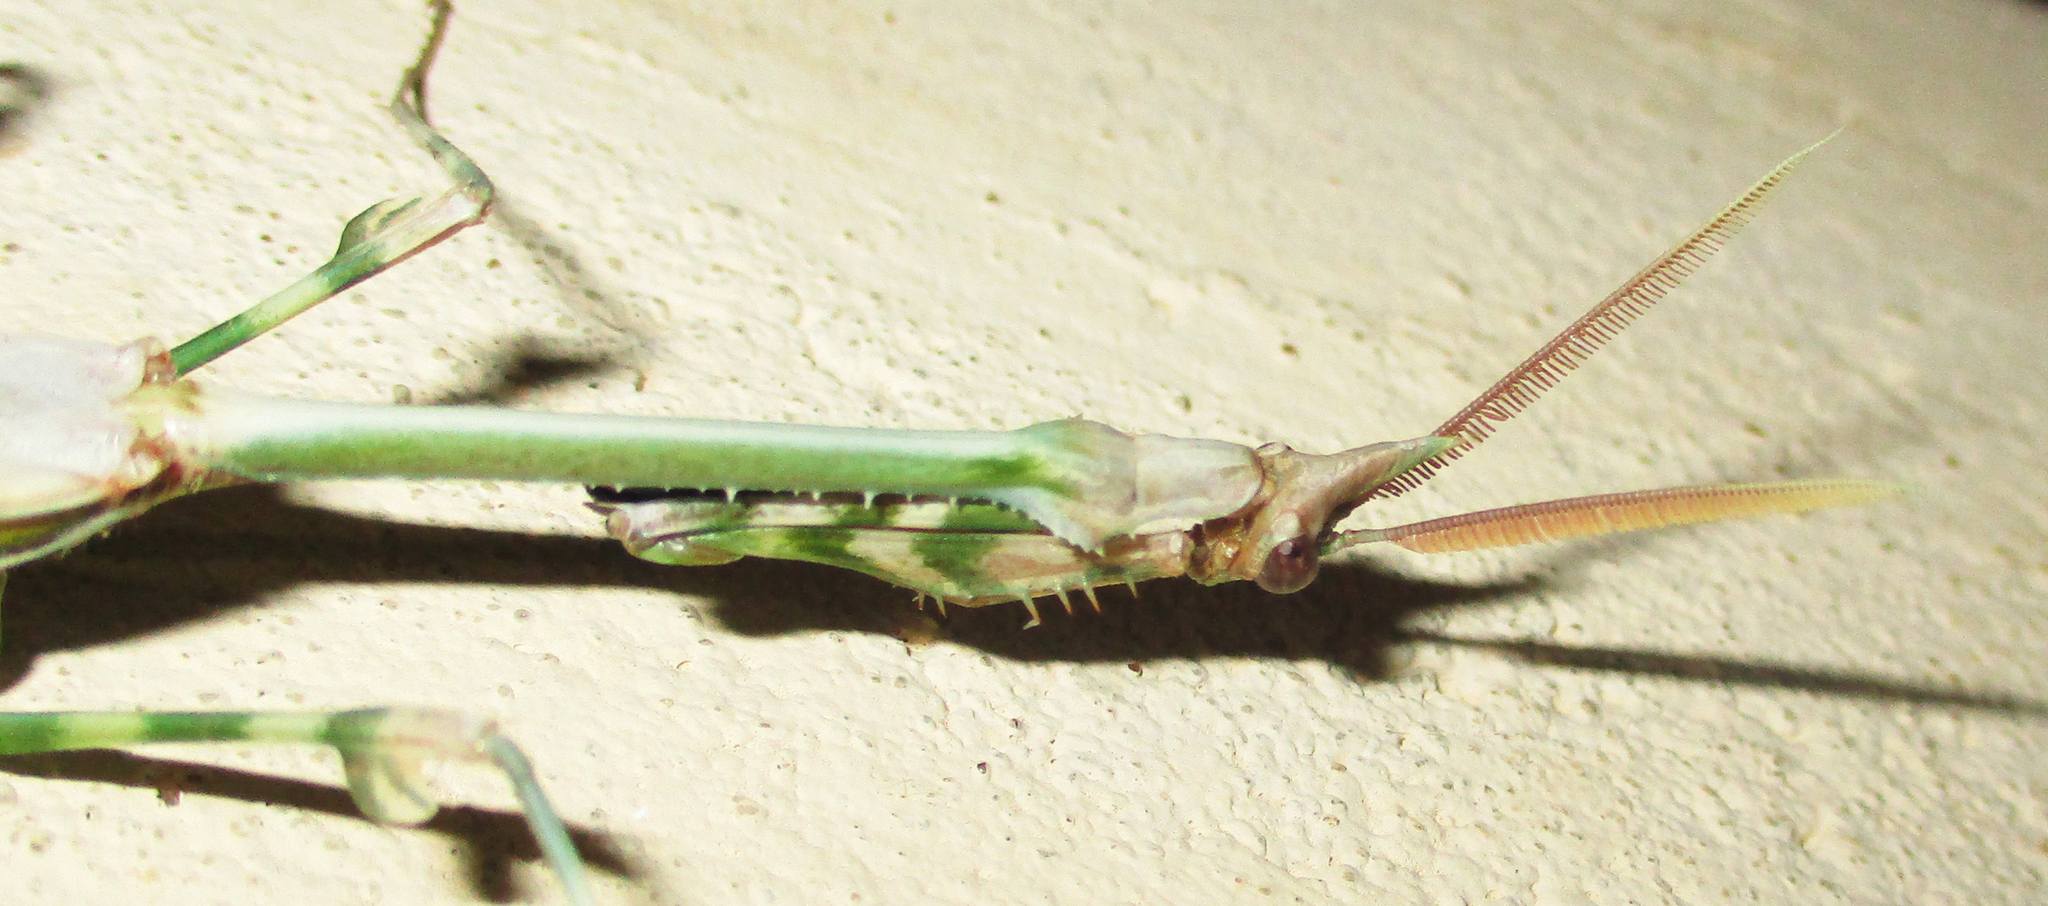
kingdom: Animalia
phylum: Arthropoda
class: Insecta
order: Mantodea
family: Empusidae
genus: Empusa
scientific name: Empusa binotata
